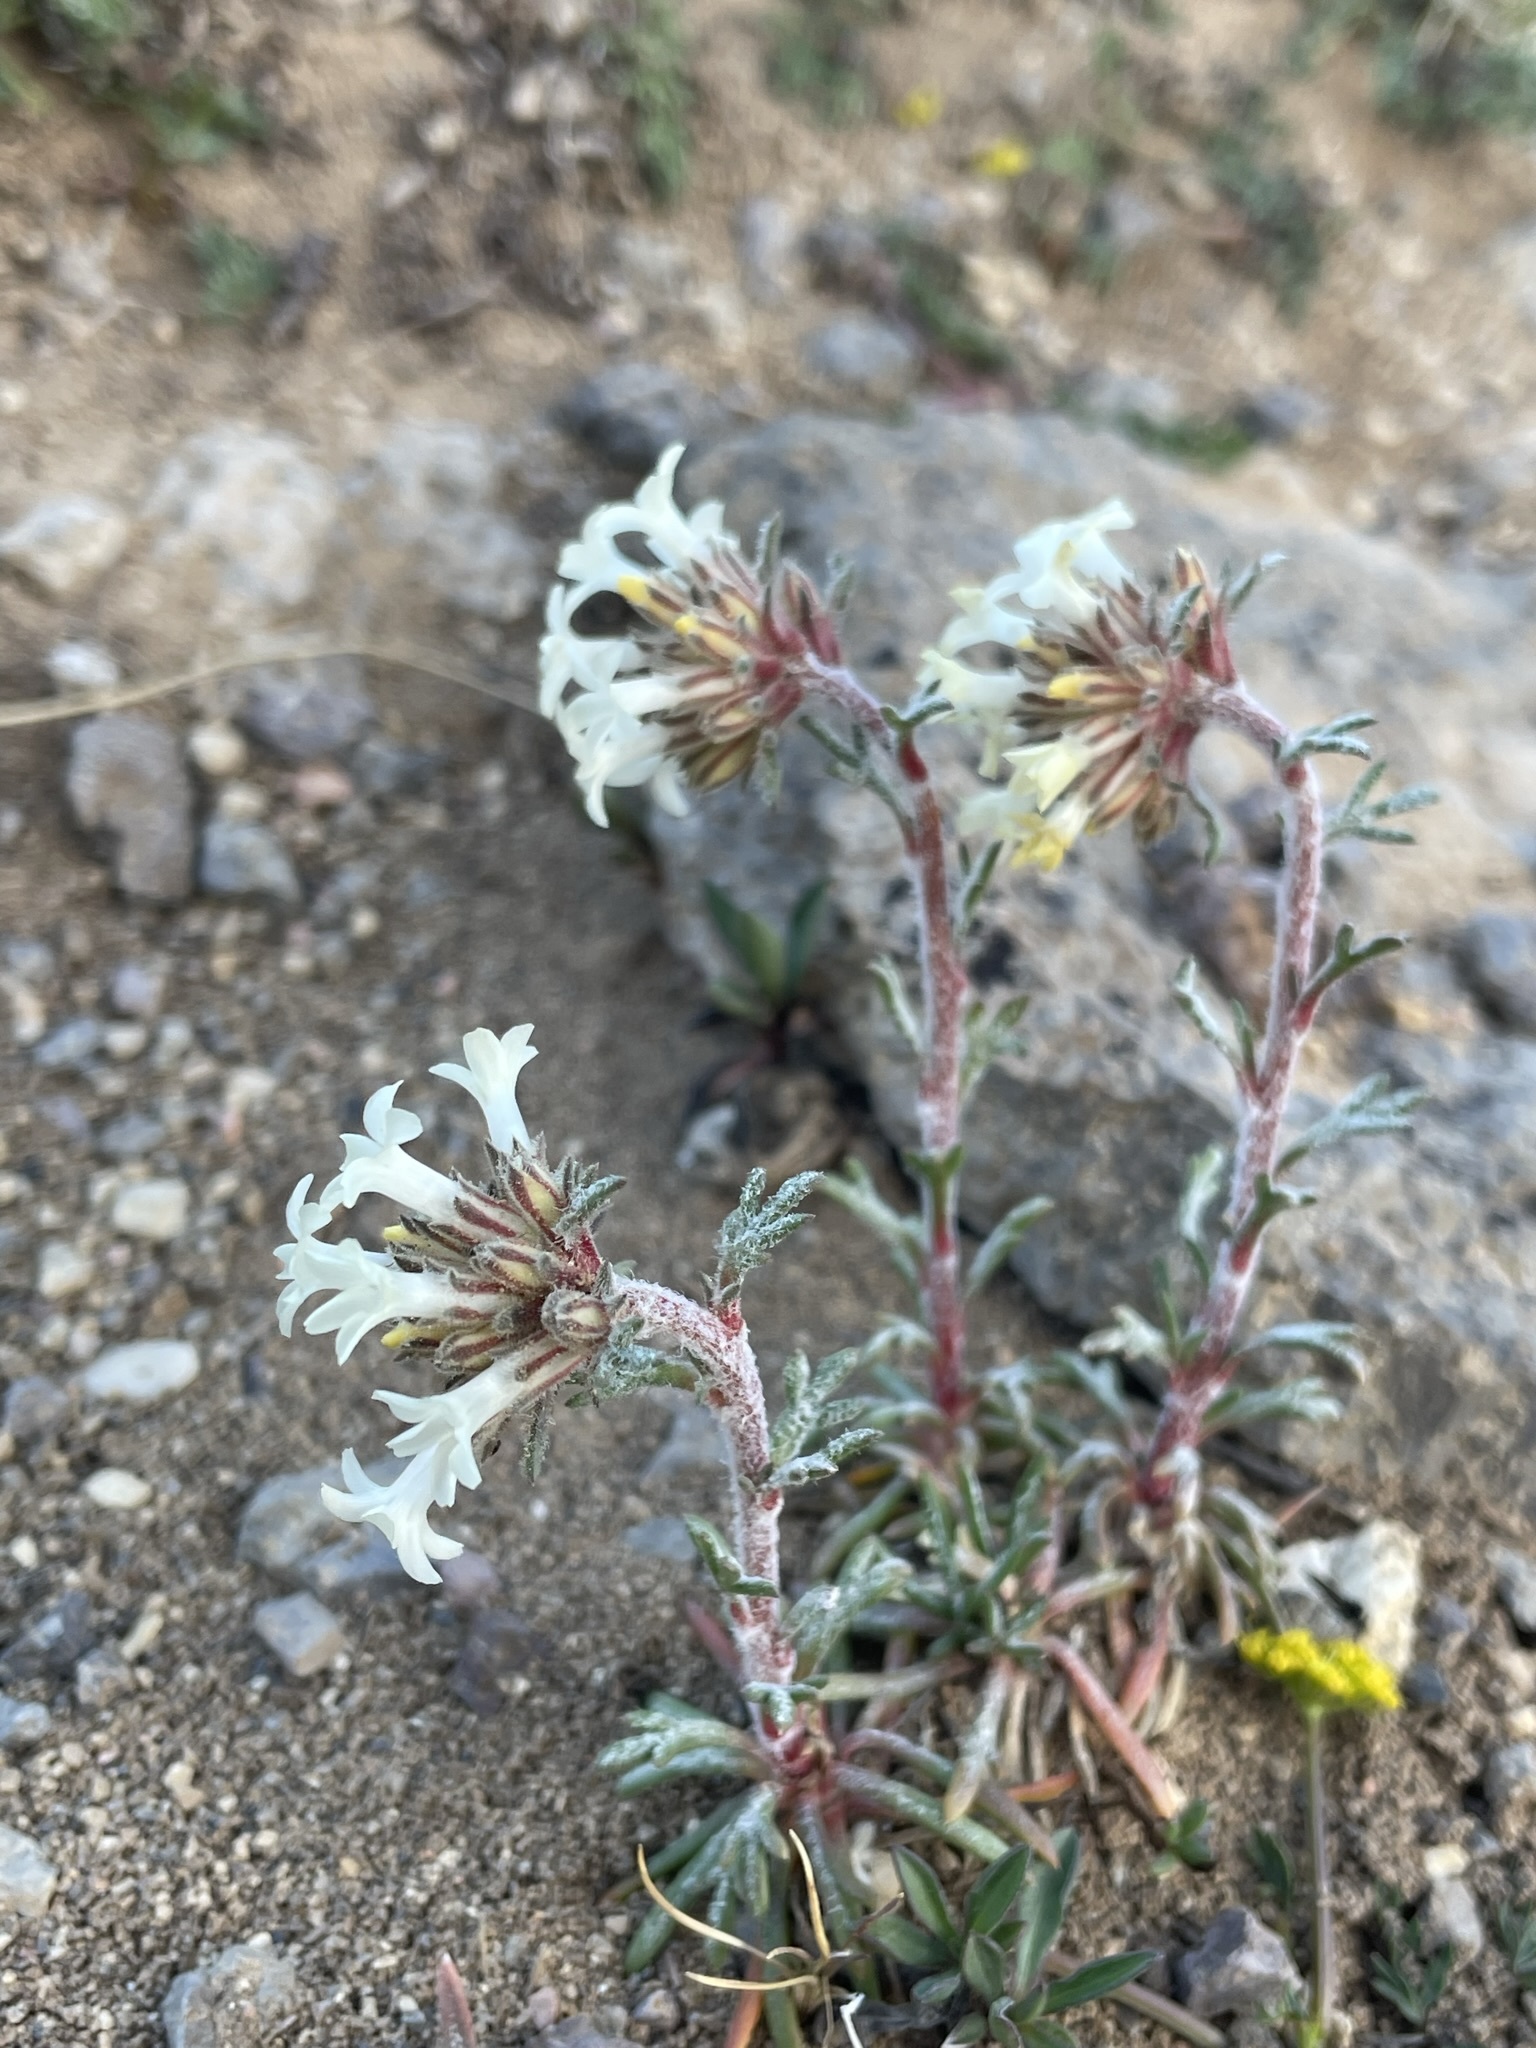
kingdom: Plantae
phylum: Tracheophyta
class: Magnoliopsida
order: Ericales
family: Polemoniaceae
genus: Ipomopsis
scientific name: Ipomopsis spicata
